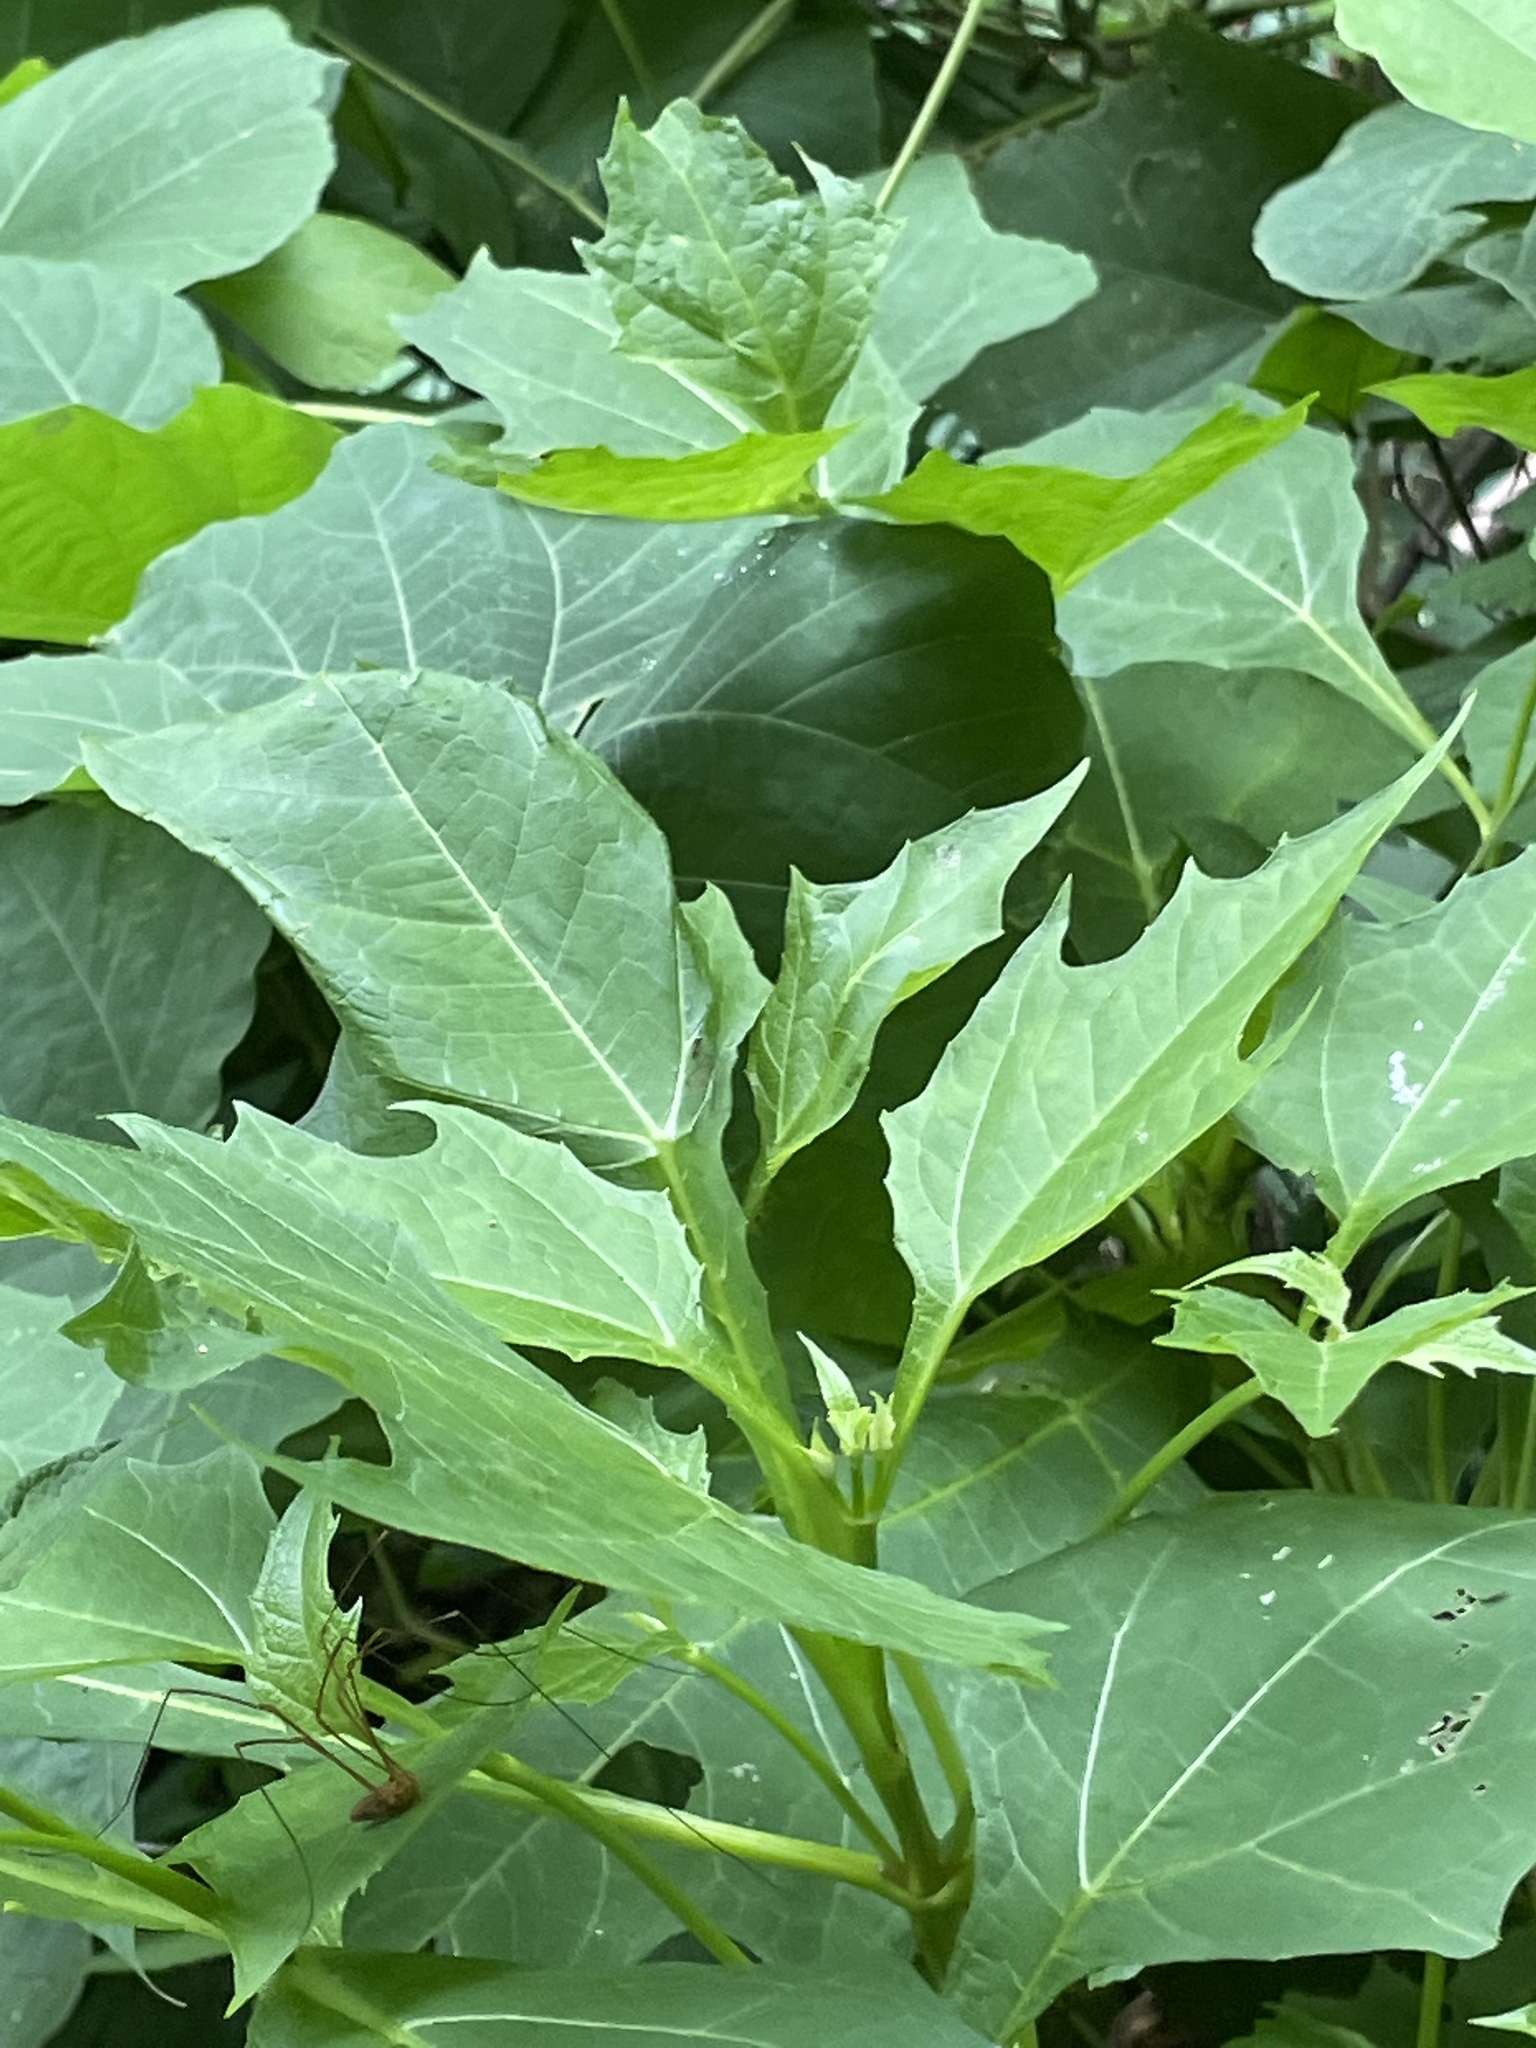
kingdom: Plantae
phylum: Tracheophyta
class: Magnoliopsida
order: Asterales
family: Asteraceae
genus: Smallanthus
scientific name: Smallanthus uvedalia
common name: Bear's-foot
